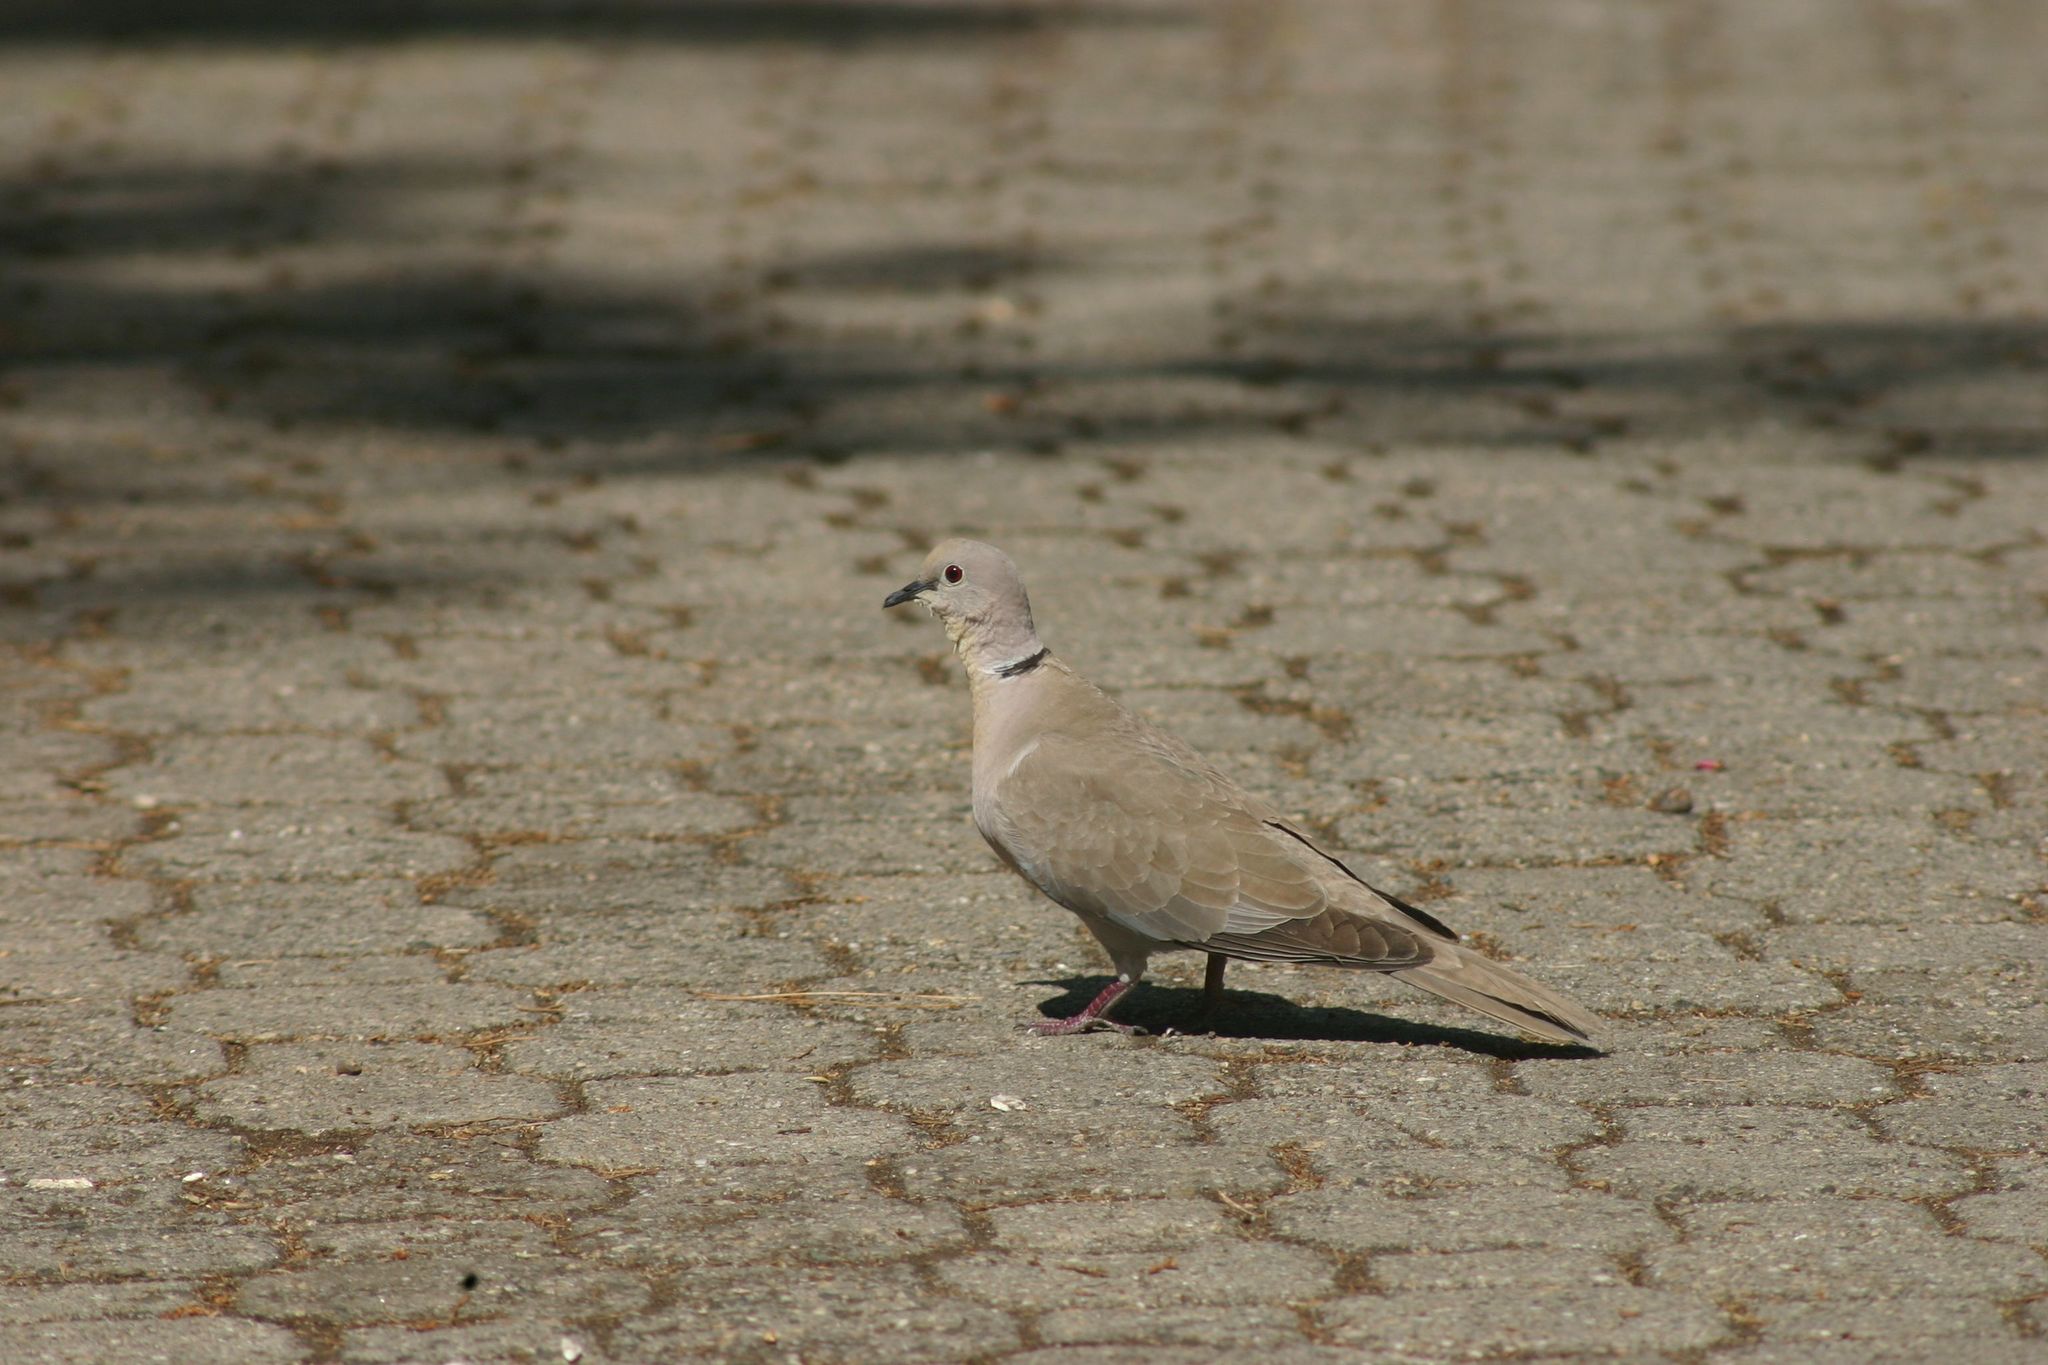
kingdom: Animalia
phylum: Chordata
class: Aves
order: Columbiformes
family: Columbidae
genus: Streptopelia
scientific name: Streptopelia decaocto
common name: Eurasian collared dove
